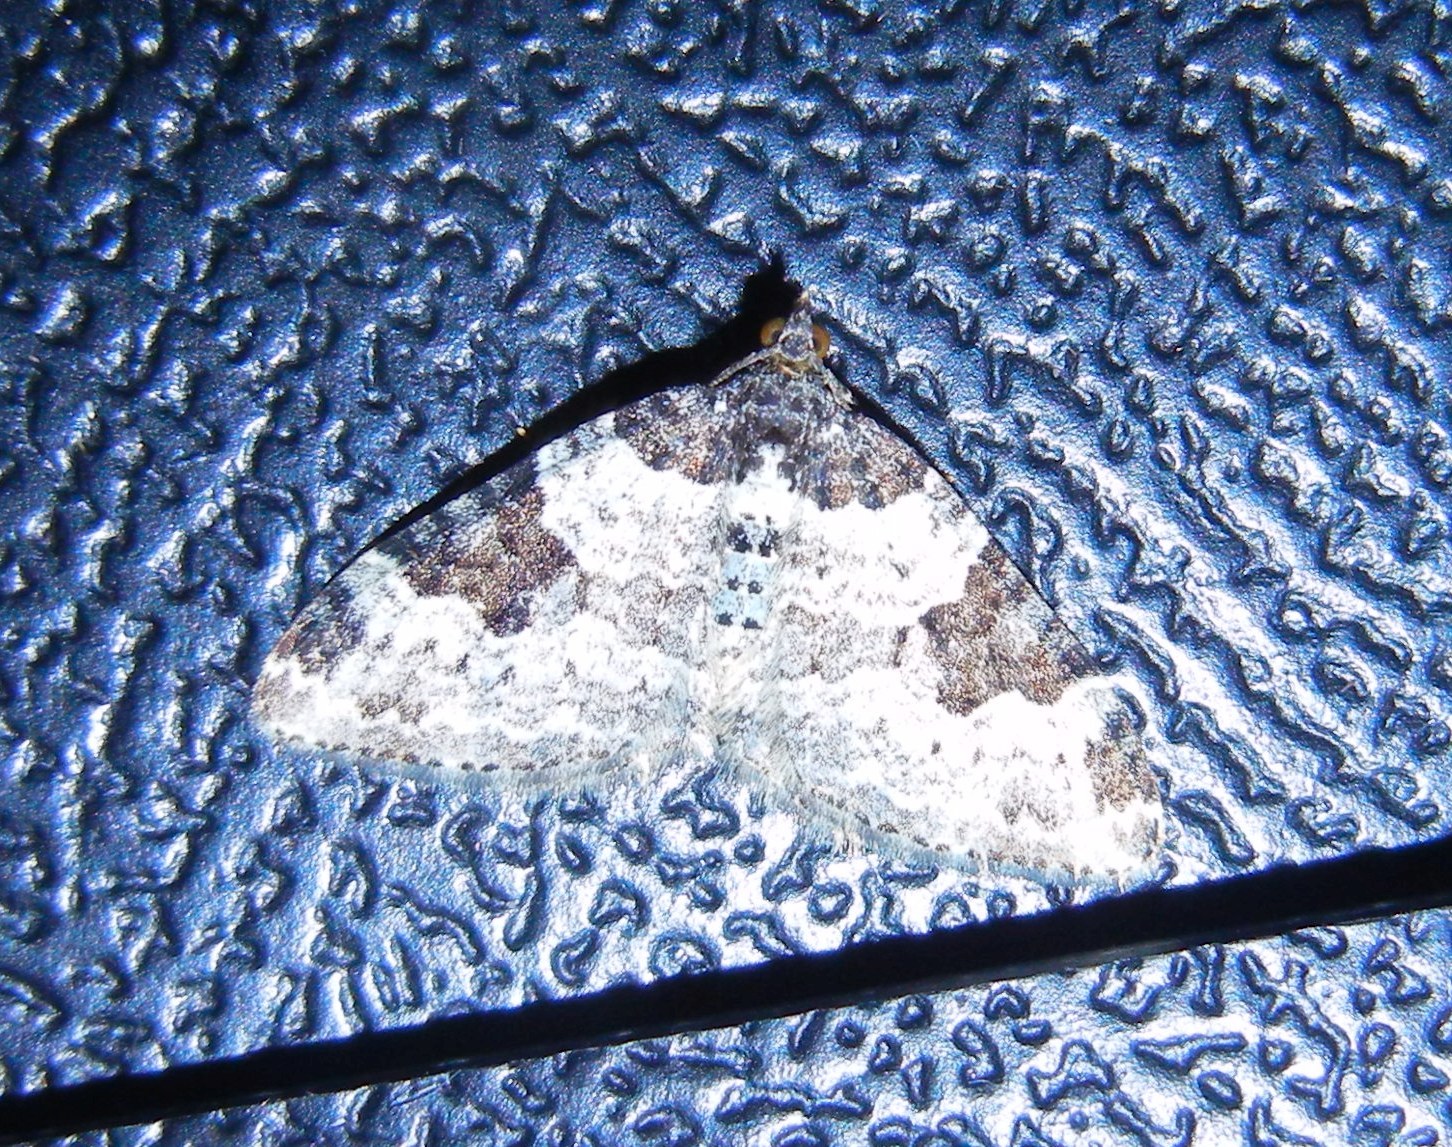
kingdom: Animalia
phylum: Arthropoda
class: Insecta
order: Lepidoptera
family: Geometridae
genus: Xanthorhoe
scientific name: Xanthorhoe fluctuata
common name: Garden carpet
